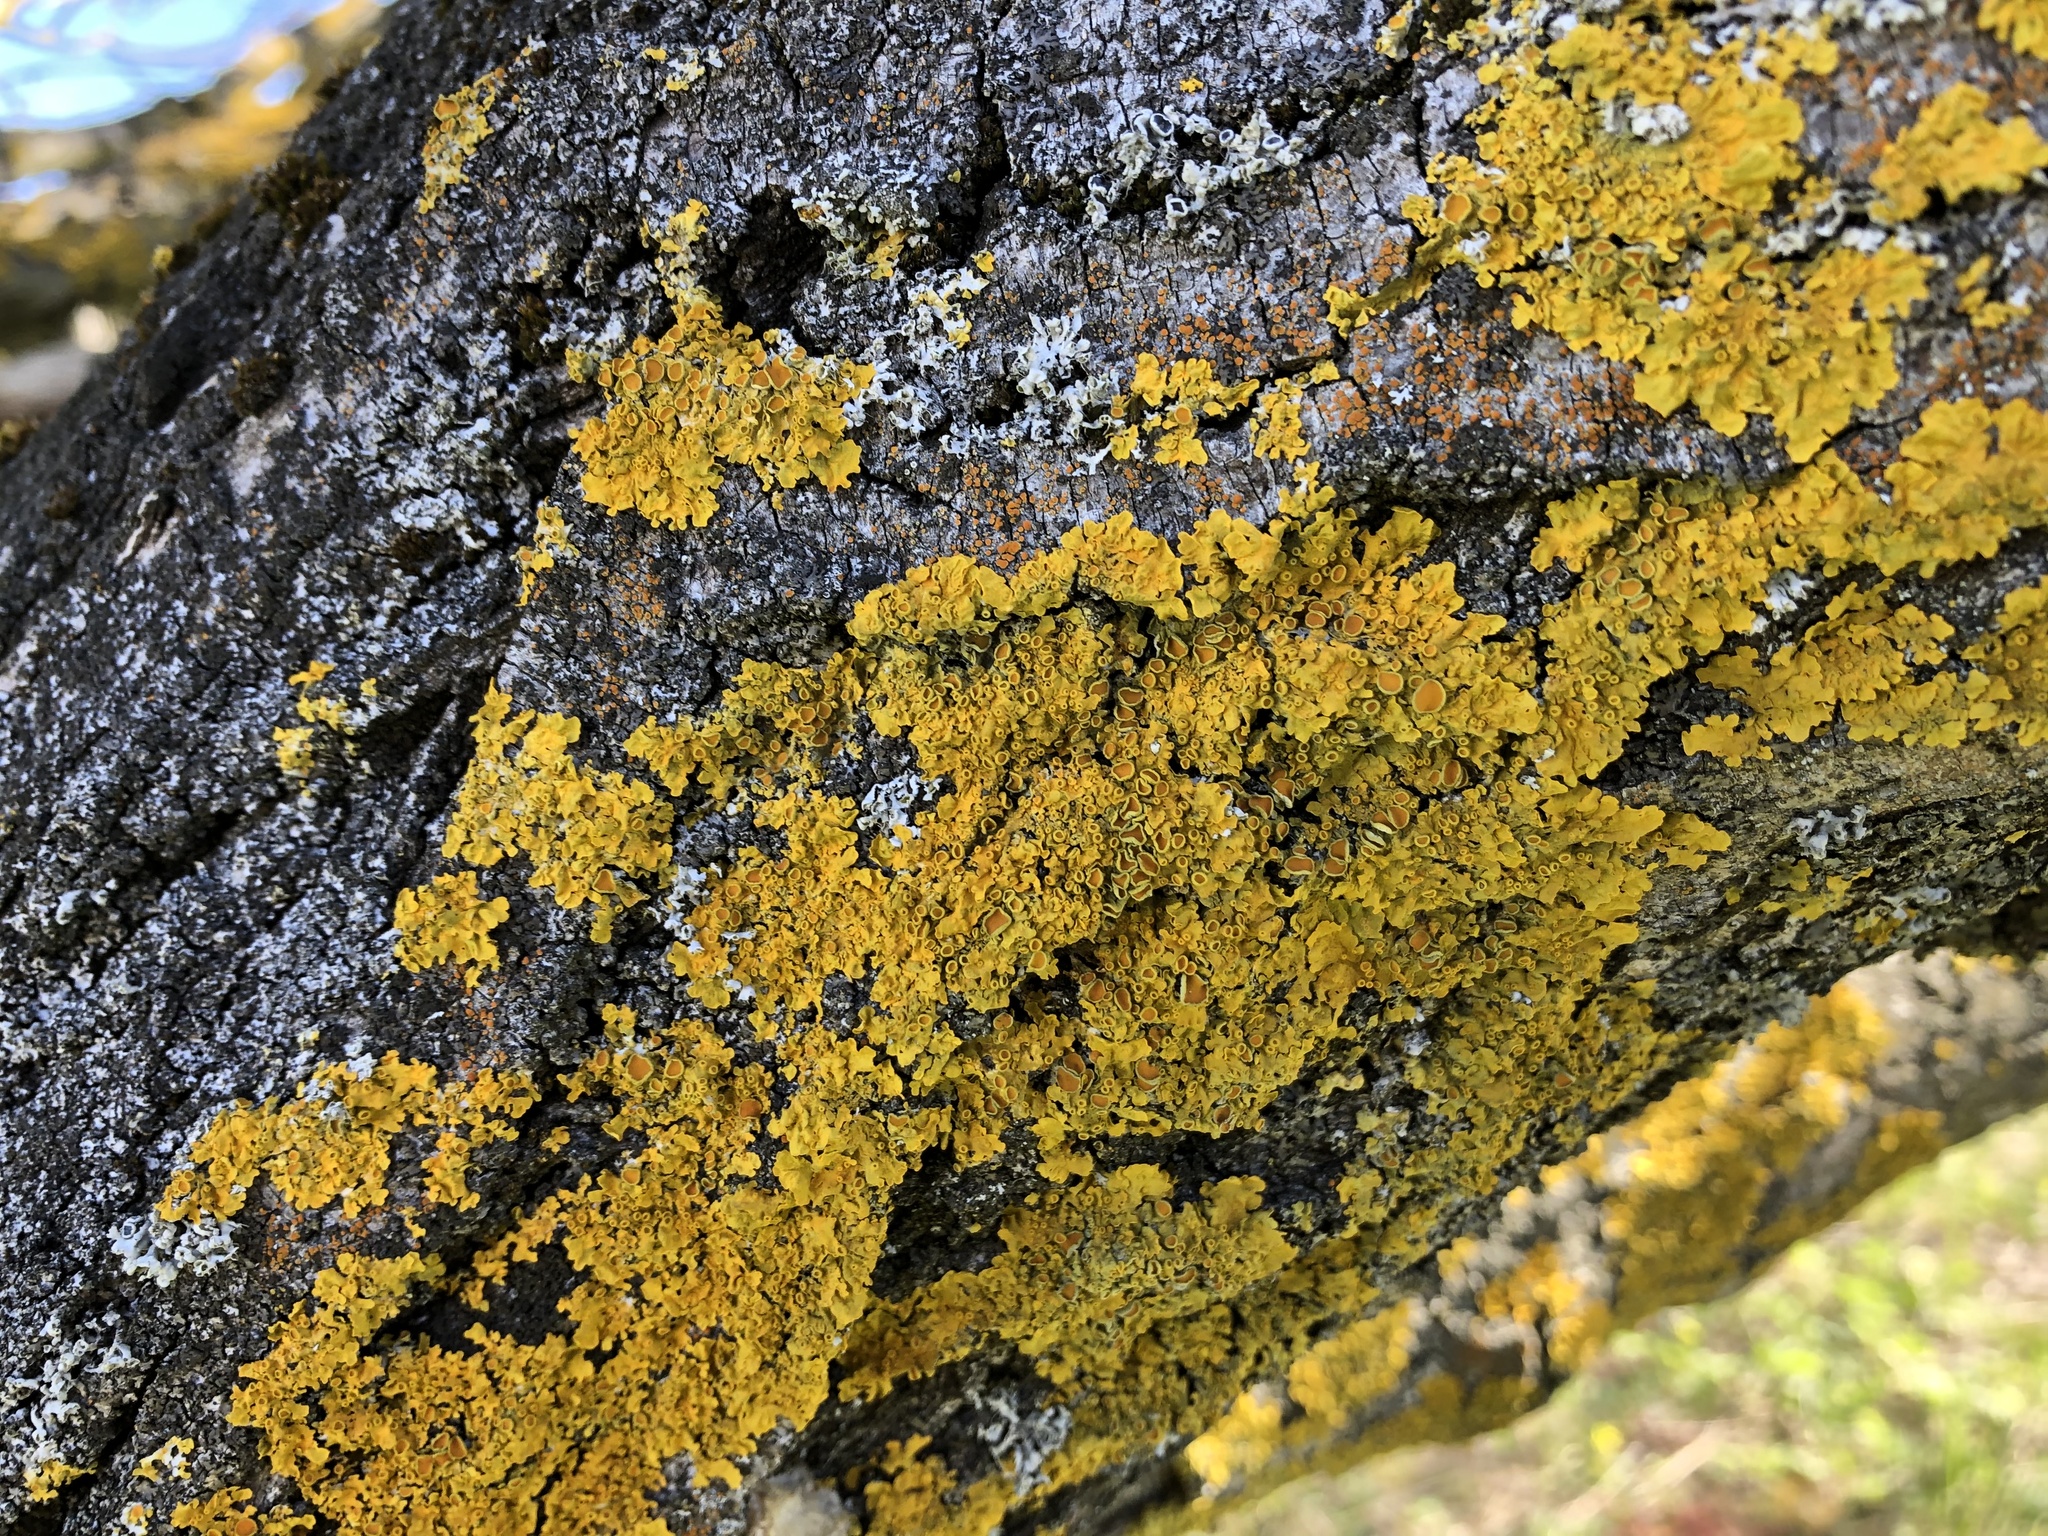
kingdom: Fungi
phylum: Ascomycota
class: Lecanoromycetes
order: Teloschistales
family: Teloschistaceae
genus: Xanthoria
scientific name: Xanthoria parietina
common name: Common orange lichen
